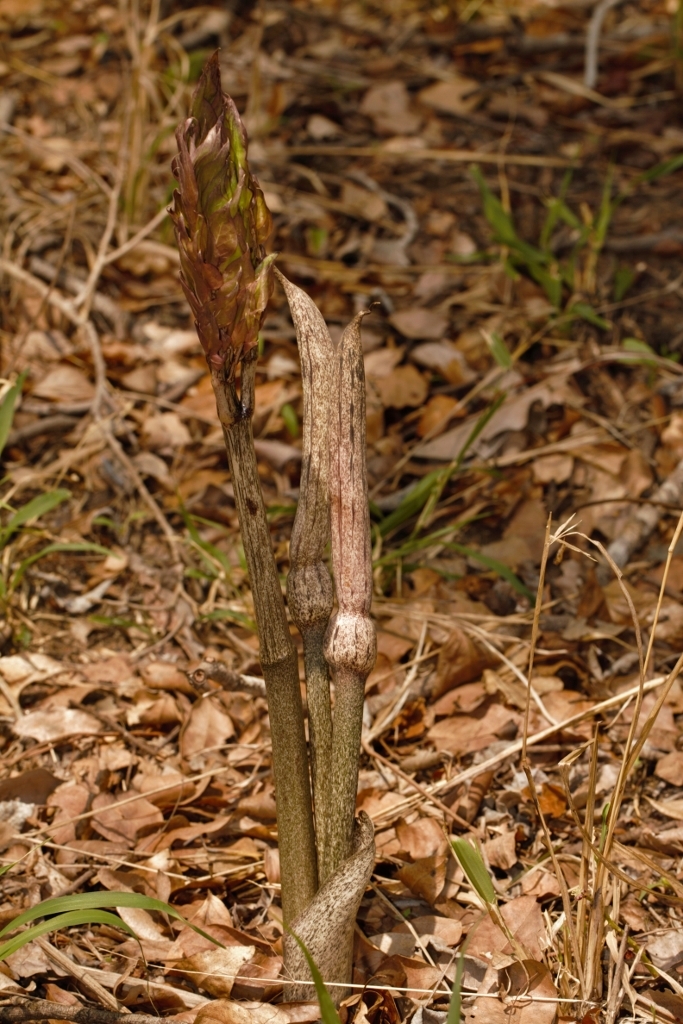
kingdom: Plantae
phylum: Tracheophyta
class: Liliopsida
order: Alismatales
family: Araceae
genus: Gonatopus
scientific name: Gonatopus boivinii
